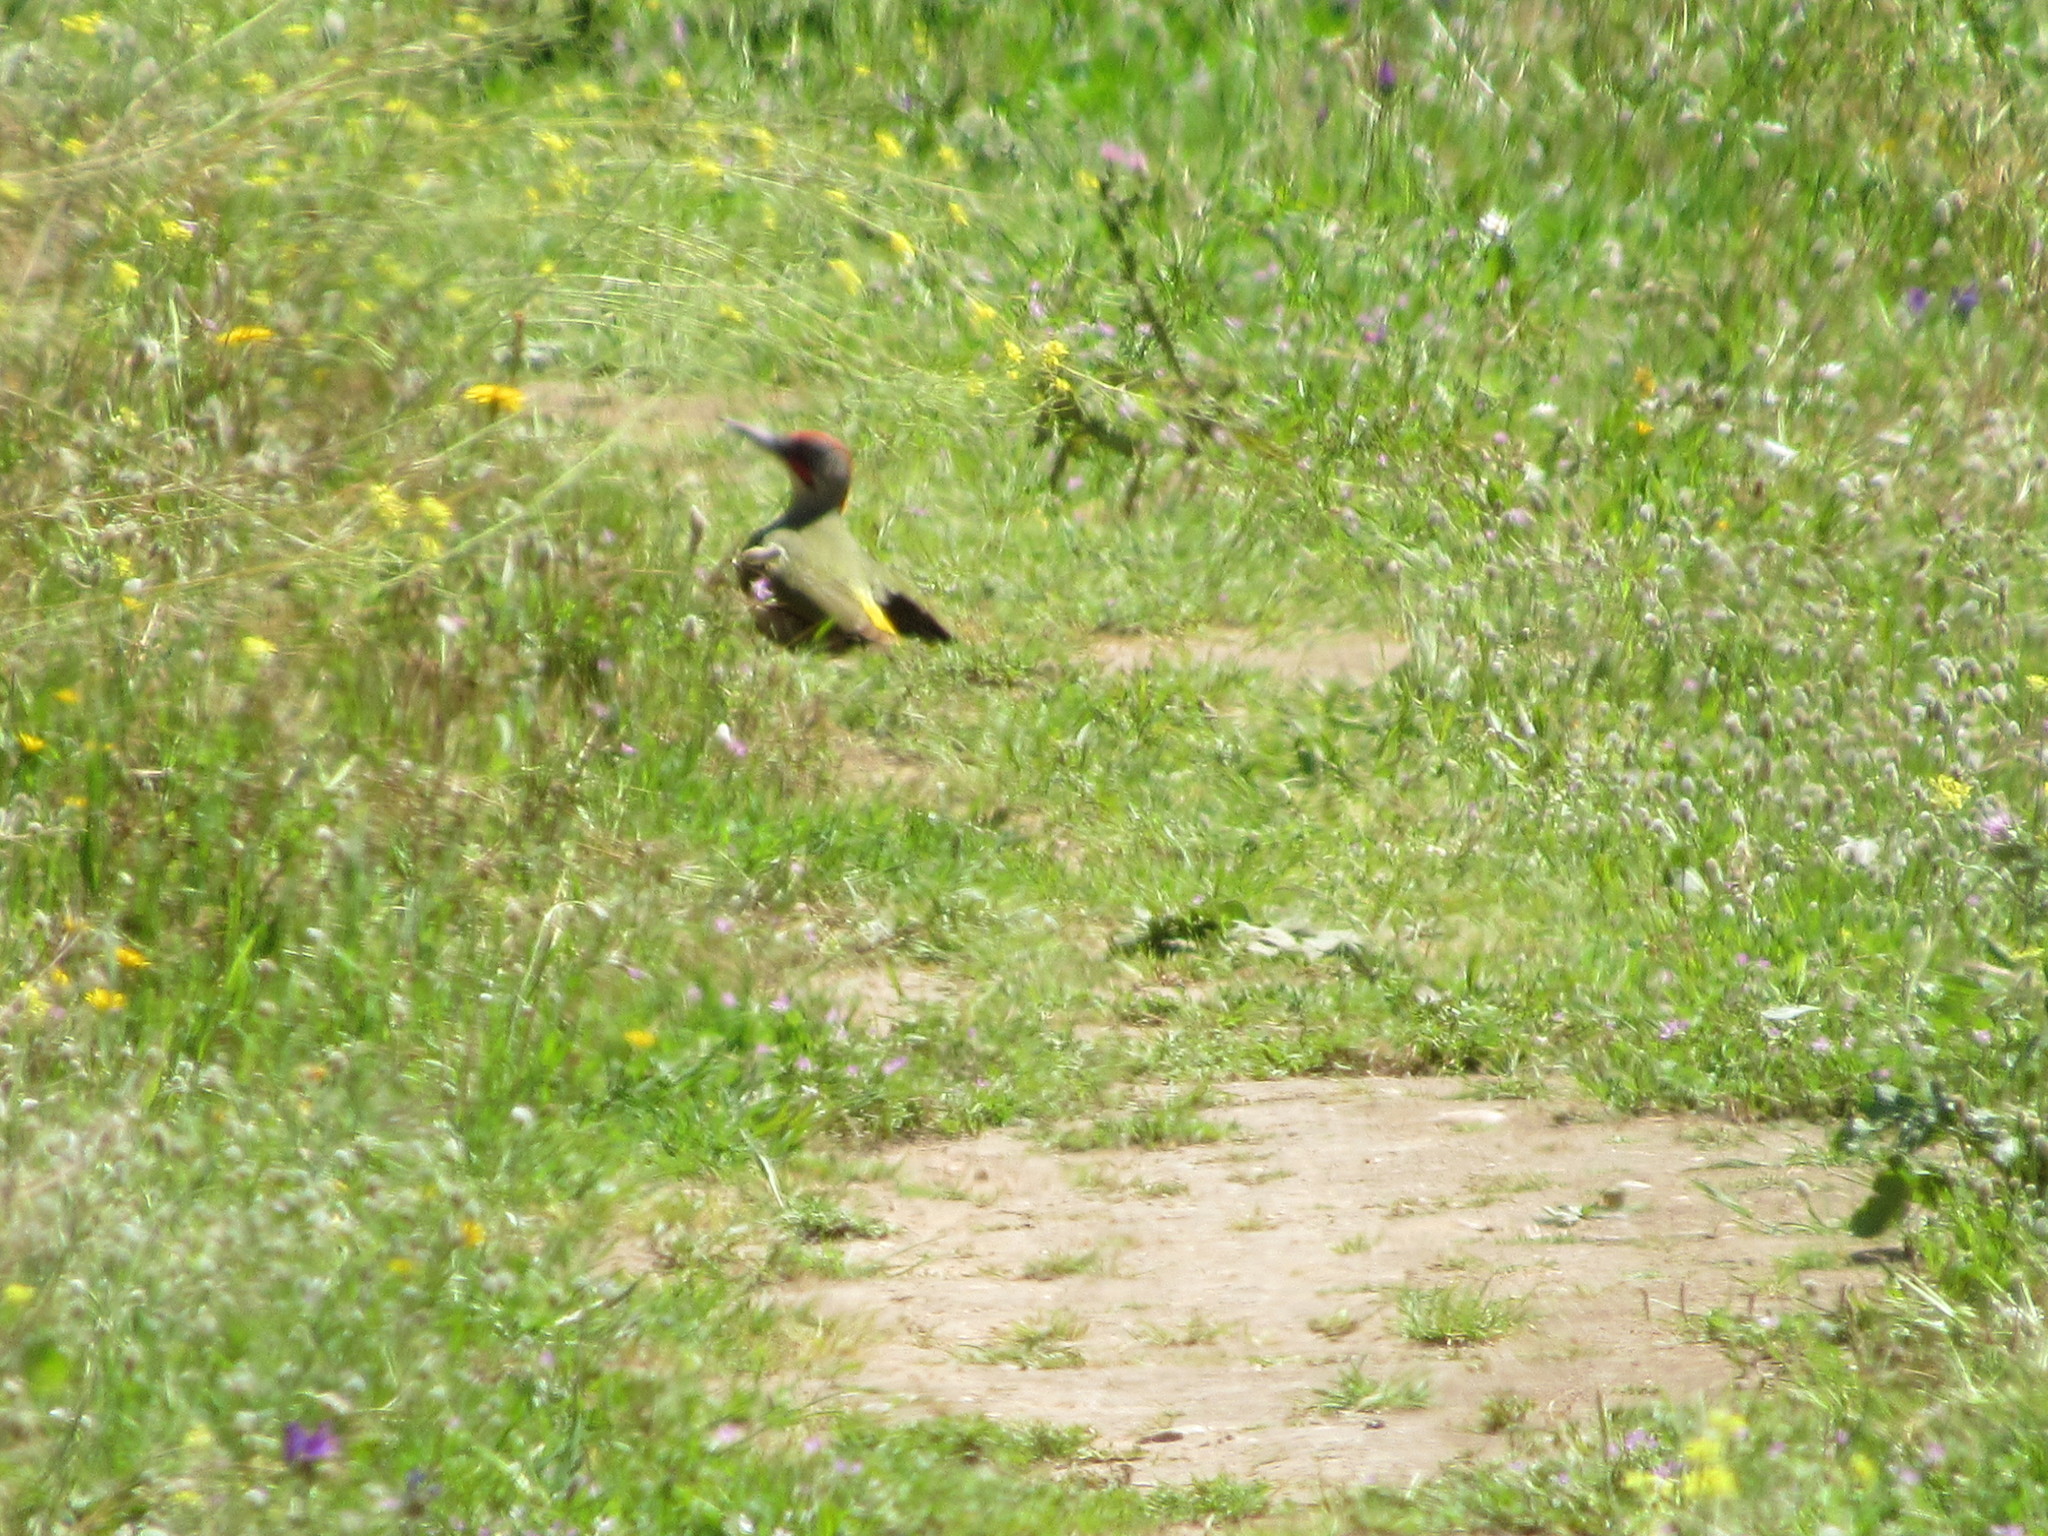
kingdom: Animalia
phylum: Chordata
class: Aves
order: Piciformes
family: Picidae
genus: Picus
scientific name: Picus sharpei
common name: Iberian green woodpecker
